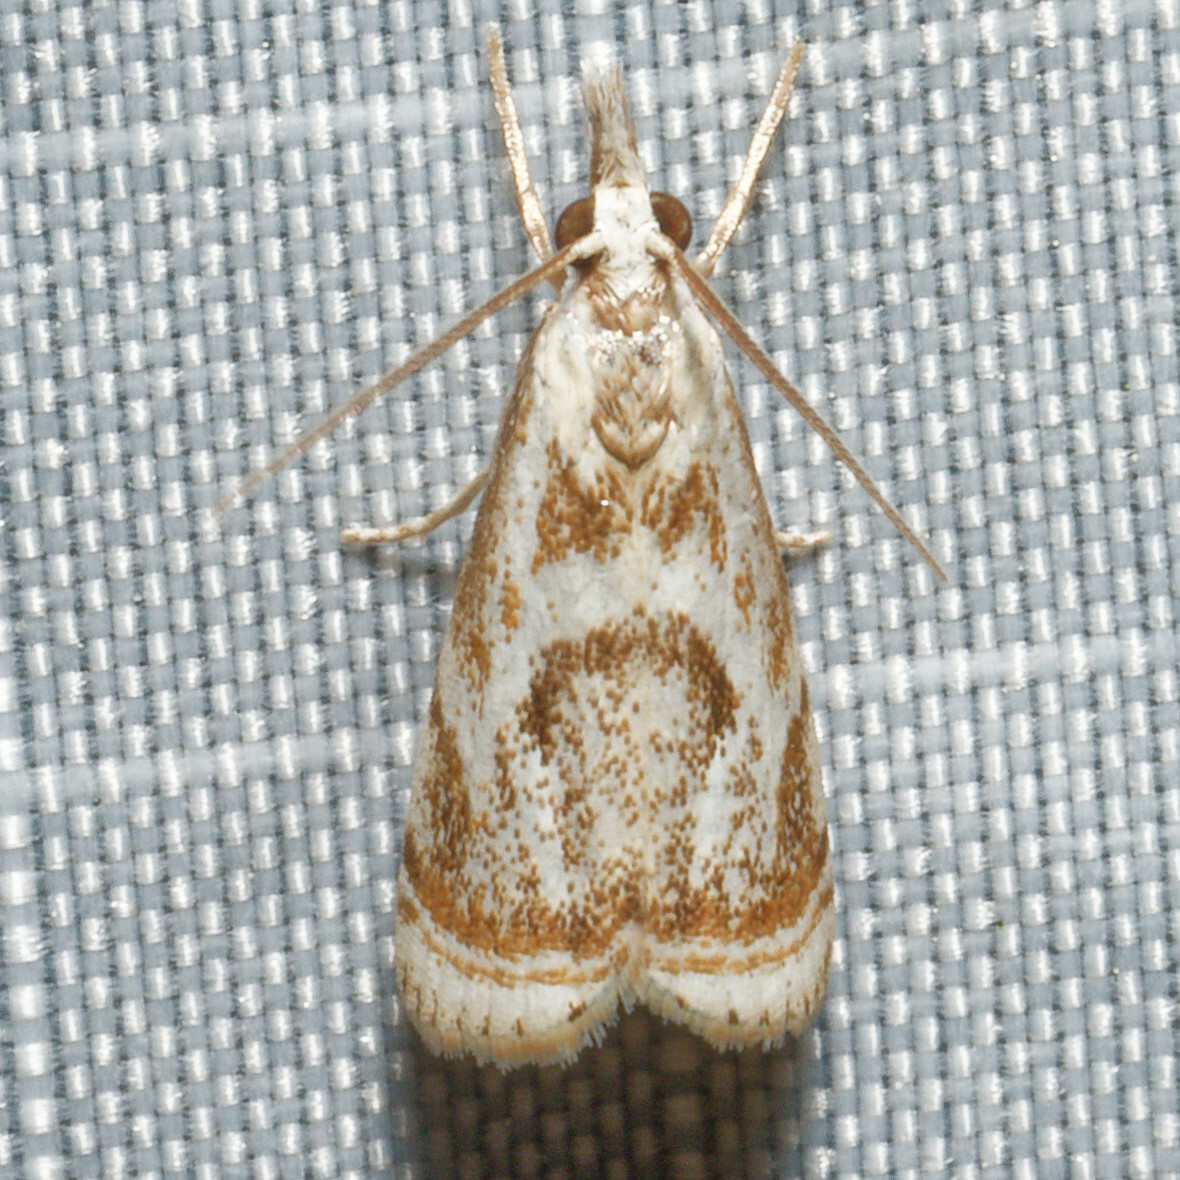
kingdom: Animalia
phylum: Arthropoda
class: Insecta
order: Lepidoptera
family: Crambidae
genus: Microcrambus
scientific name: Microcrambus elegans
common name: Elegant grass-veneer
